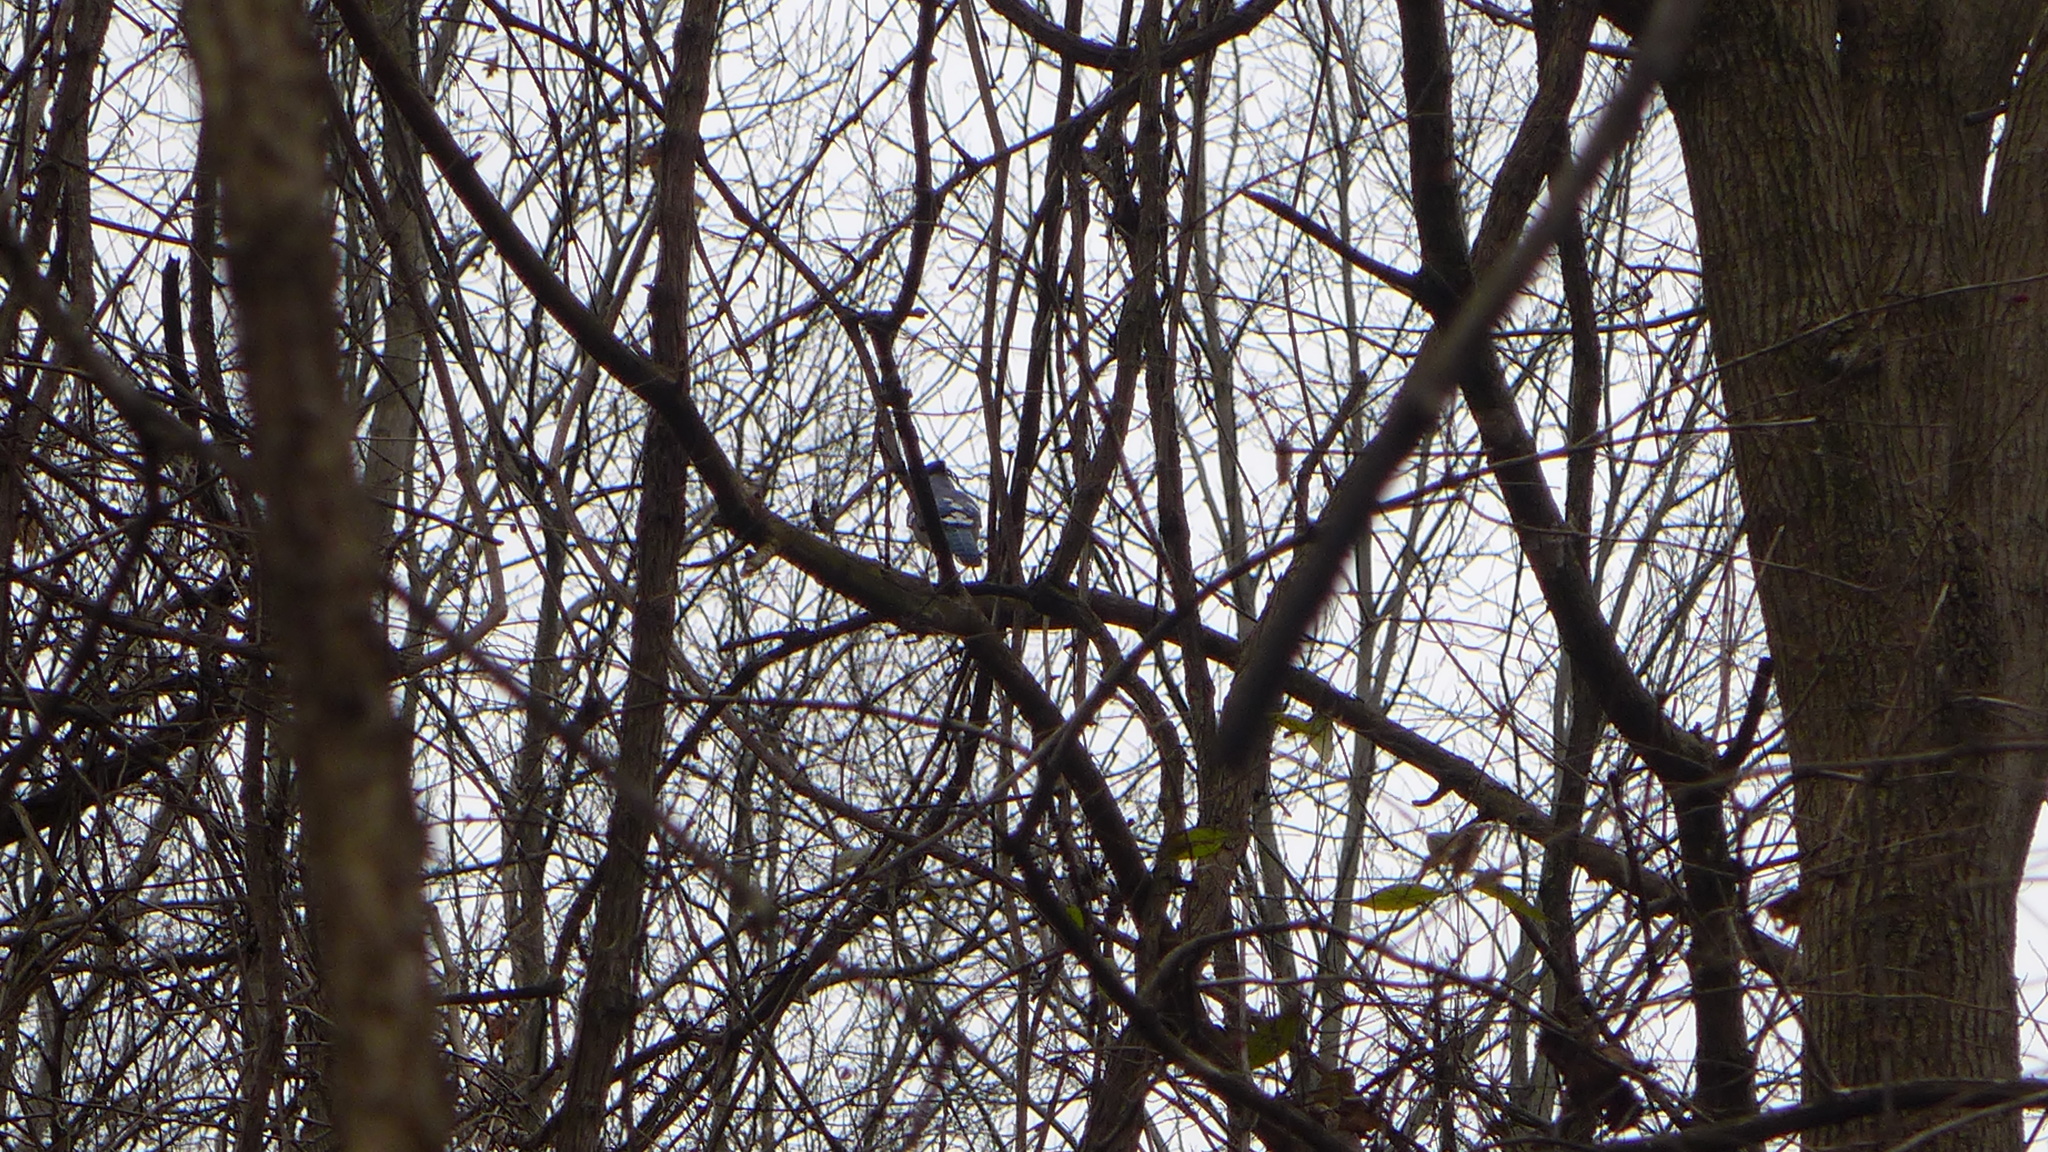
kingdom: Animalia
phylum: Chordata
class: Aves
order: Passeriformes
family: Corvidae
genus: Cyanocitta
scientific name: Cyanocitta cristata
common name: Blue jay
